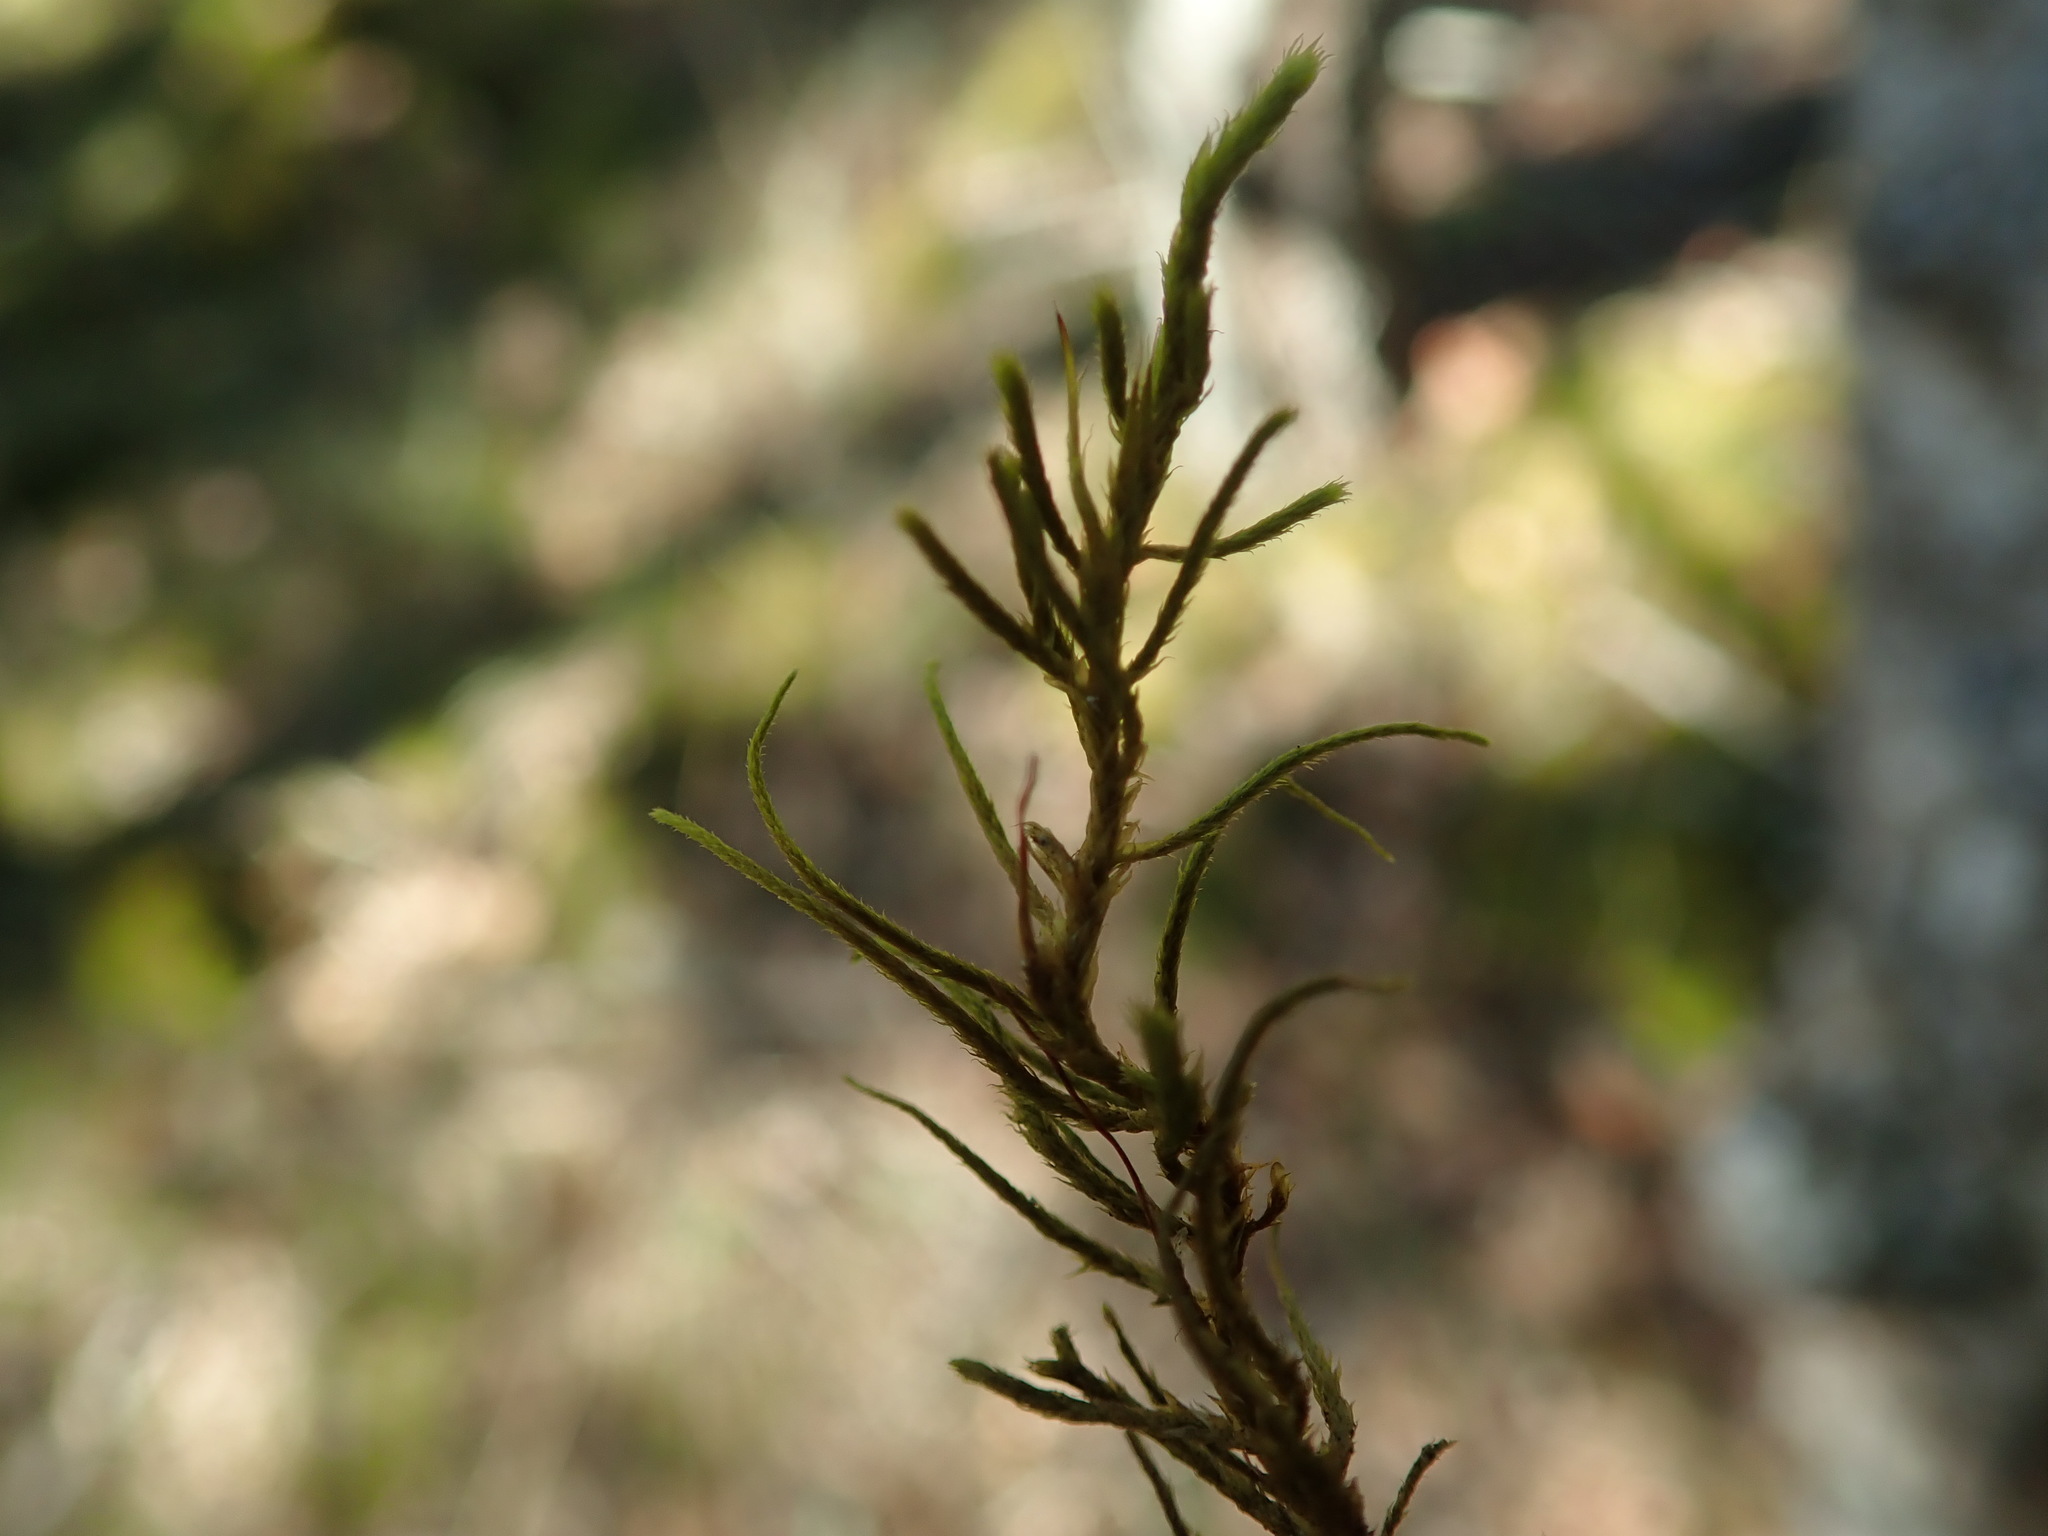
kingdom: Plantae
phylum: Bryophyta
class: Bryopsida
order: Hypnales
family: Antitrichiaceae
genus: Antitrichia
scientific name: Antitrichia californica
